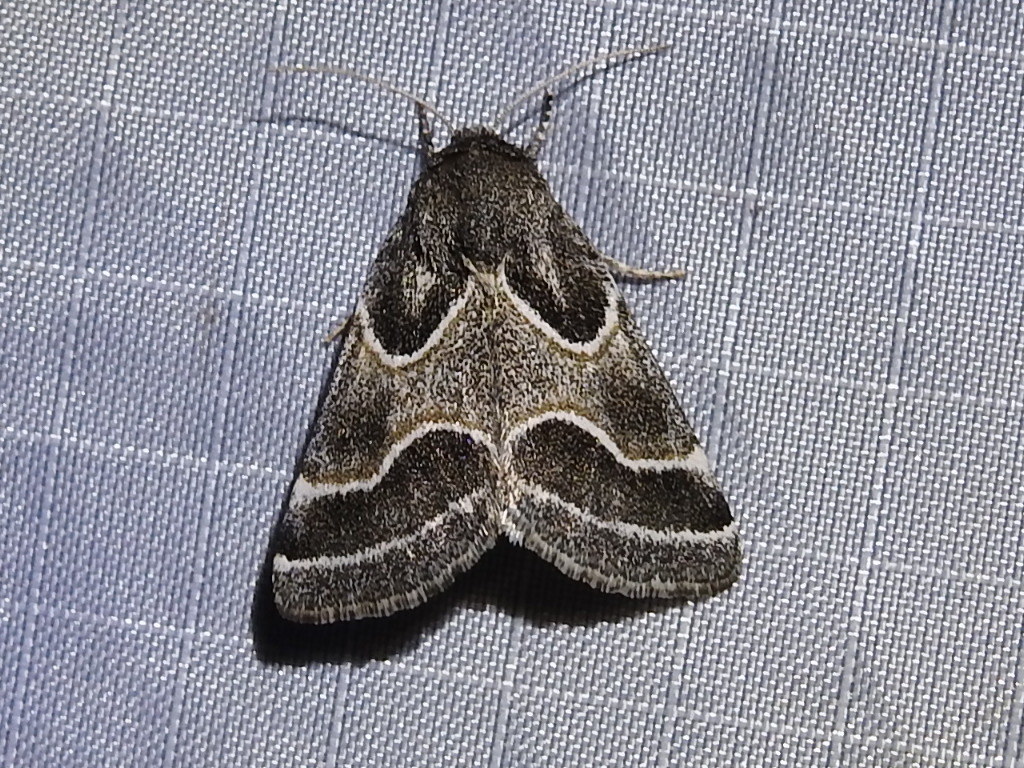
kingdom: Animalia
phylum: Arthropoda
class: Insecta
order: Lepidoptera
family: Noctuidae
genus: Schinia
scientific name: Schinia rivulosa
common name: Scarce meal-moth
